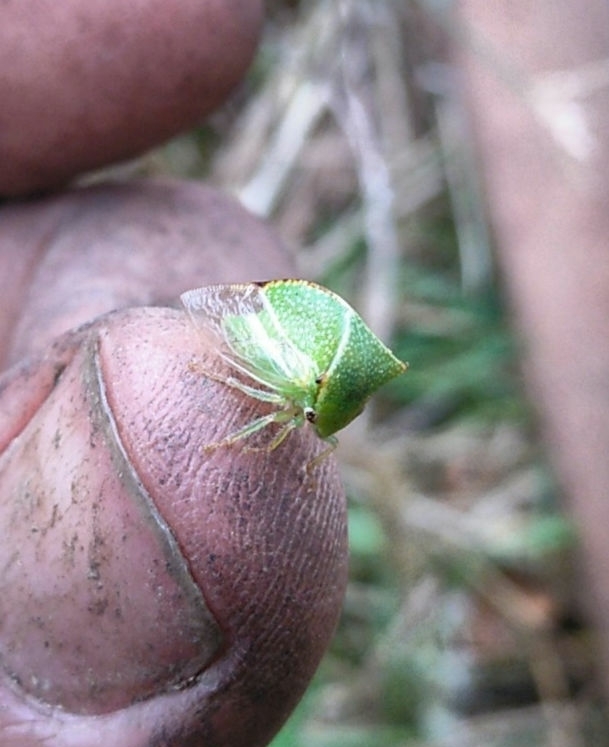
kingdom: Animalia
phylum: Arthropoda
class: Insecta
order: Hemiptera
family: Membracidae
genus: Stictocephala
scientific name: Stictocephala bisonia
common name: American buffalo treehopper
